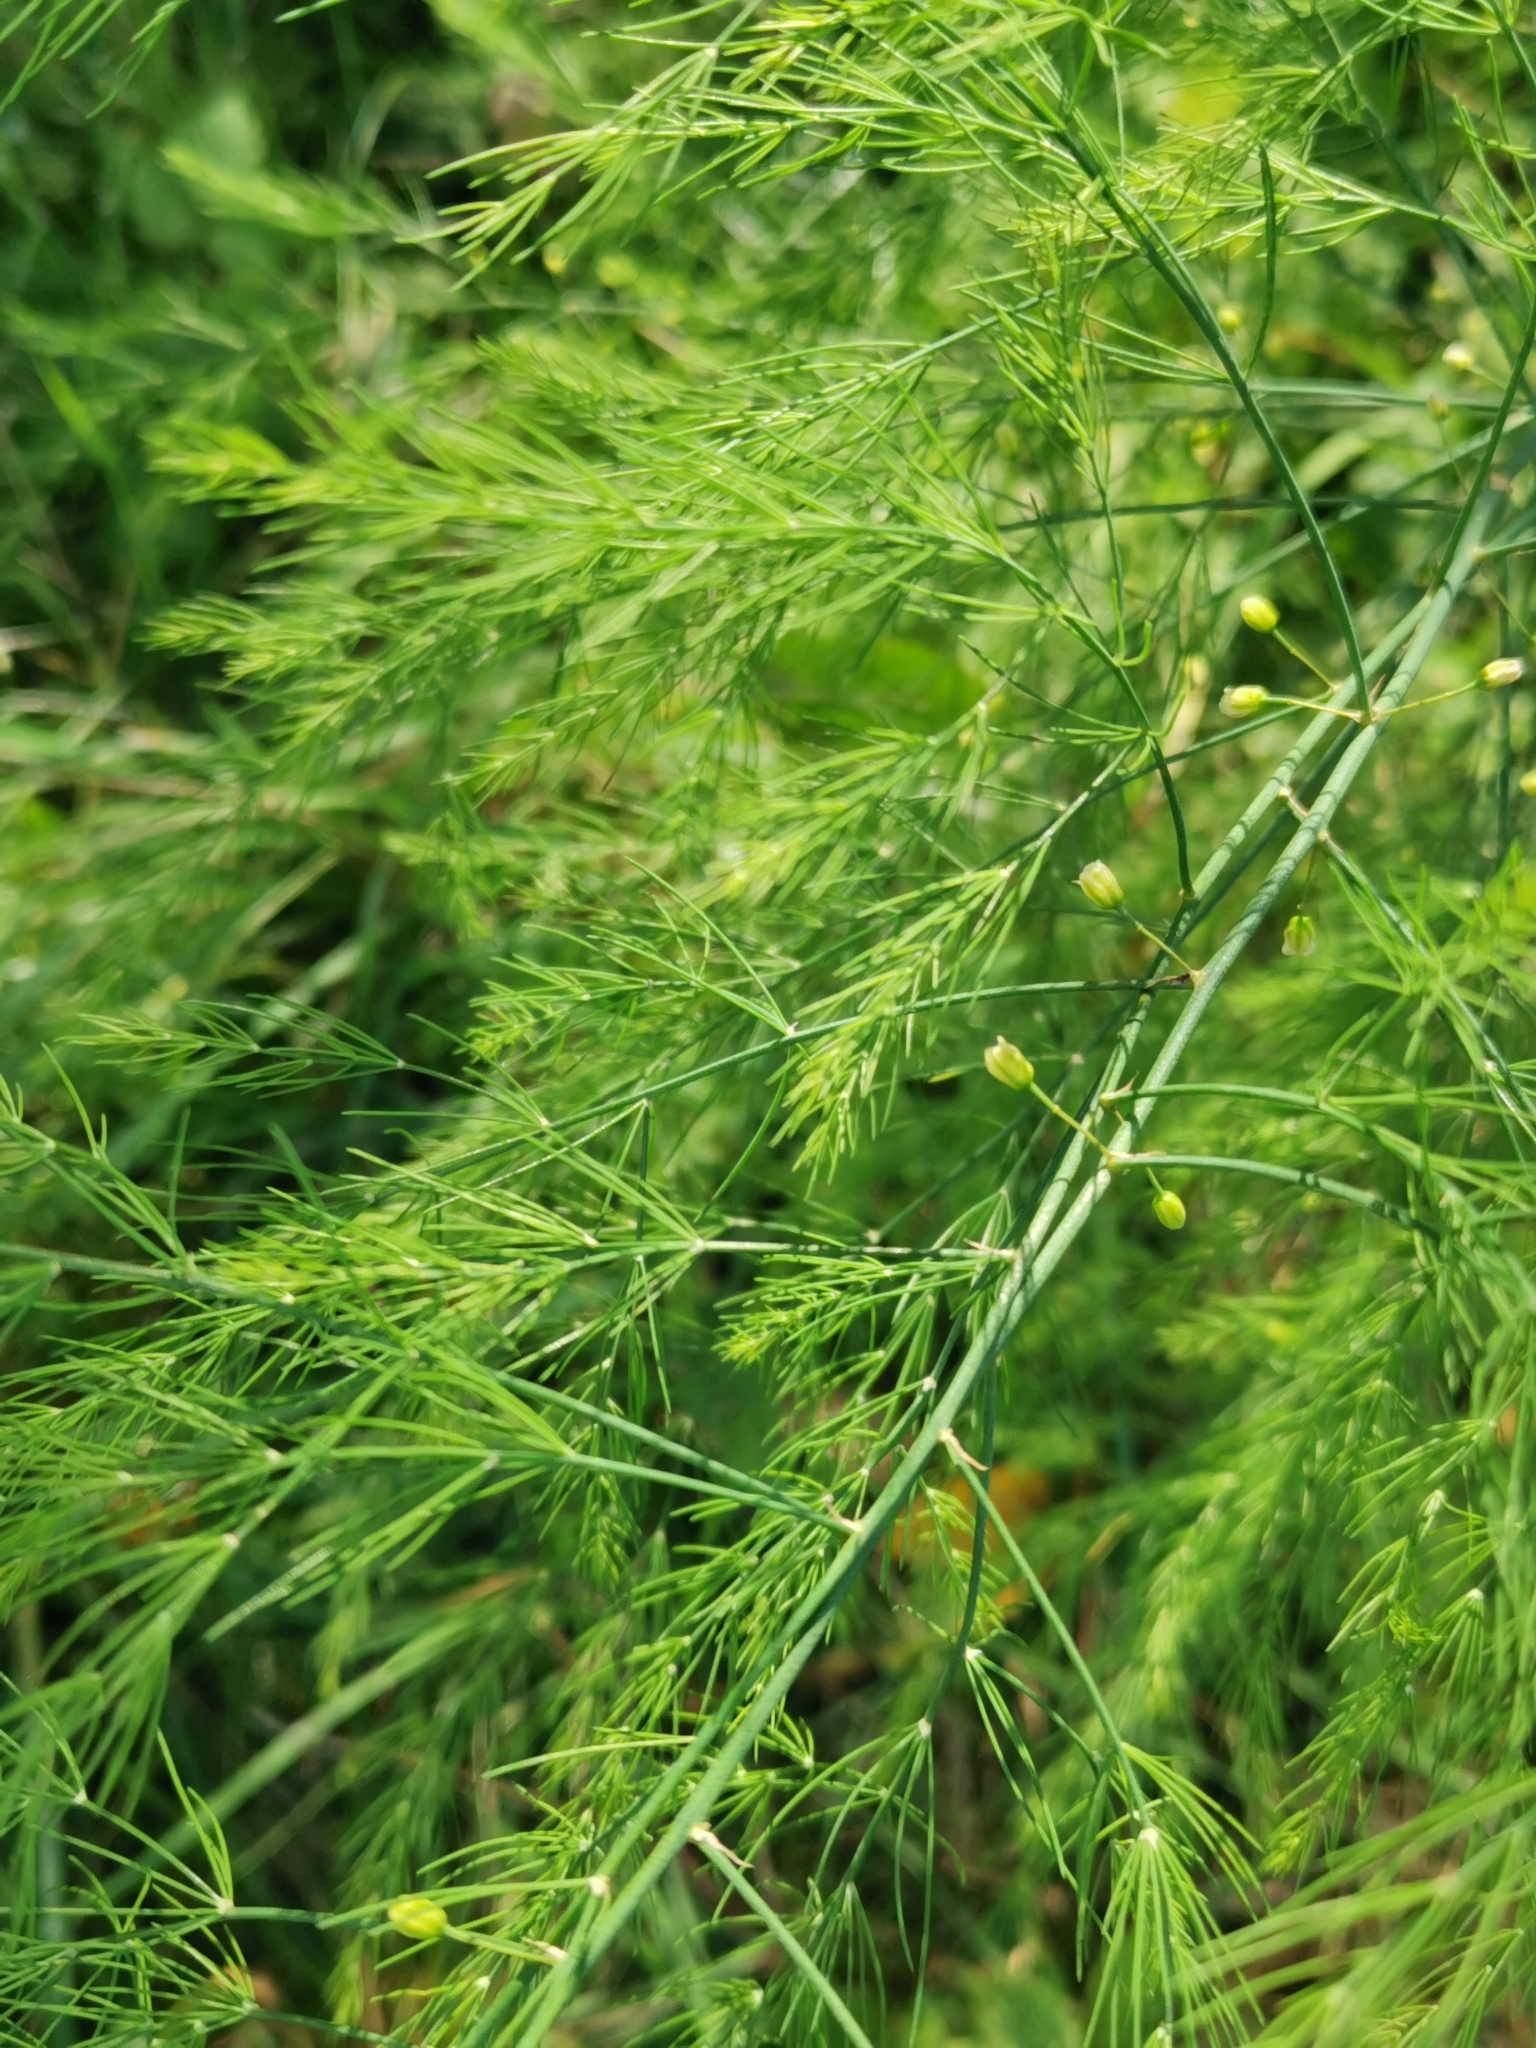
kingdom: Plantae
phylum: Tracheophyta
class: Liliopsida
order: Asparagales
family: Asparagaceae
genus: Asparagus
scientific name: Asparagus officinalis
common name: Garden asparagus
